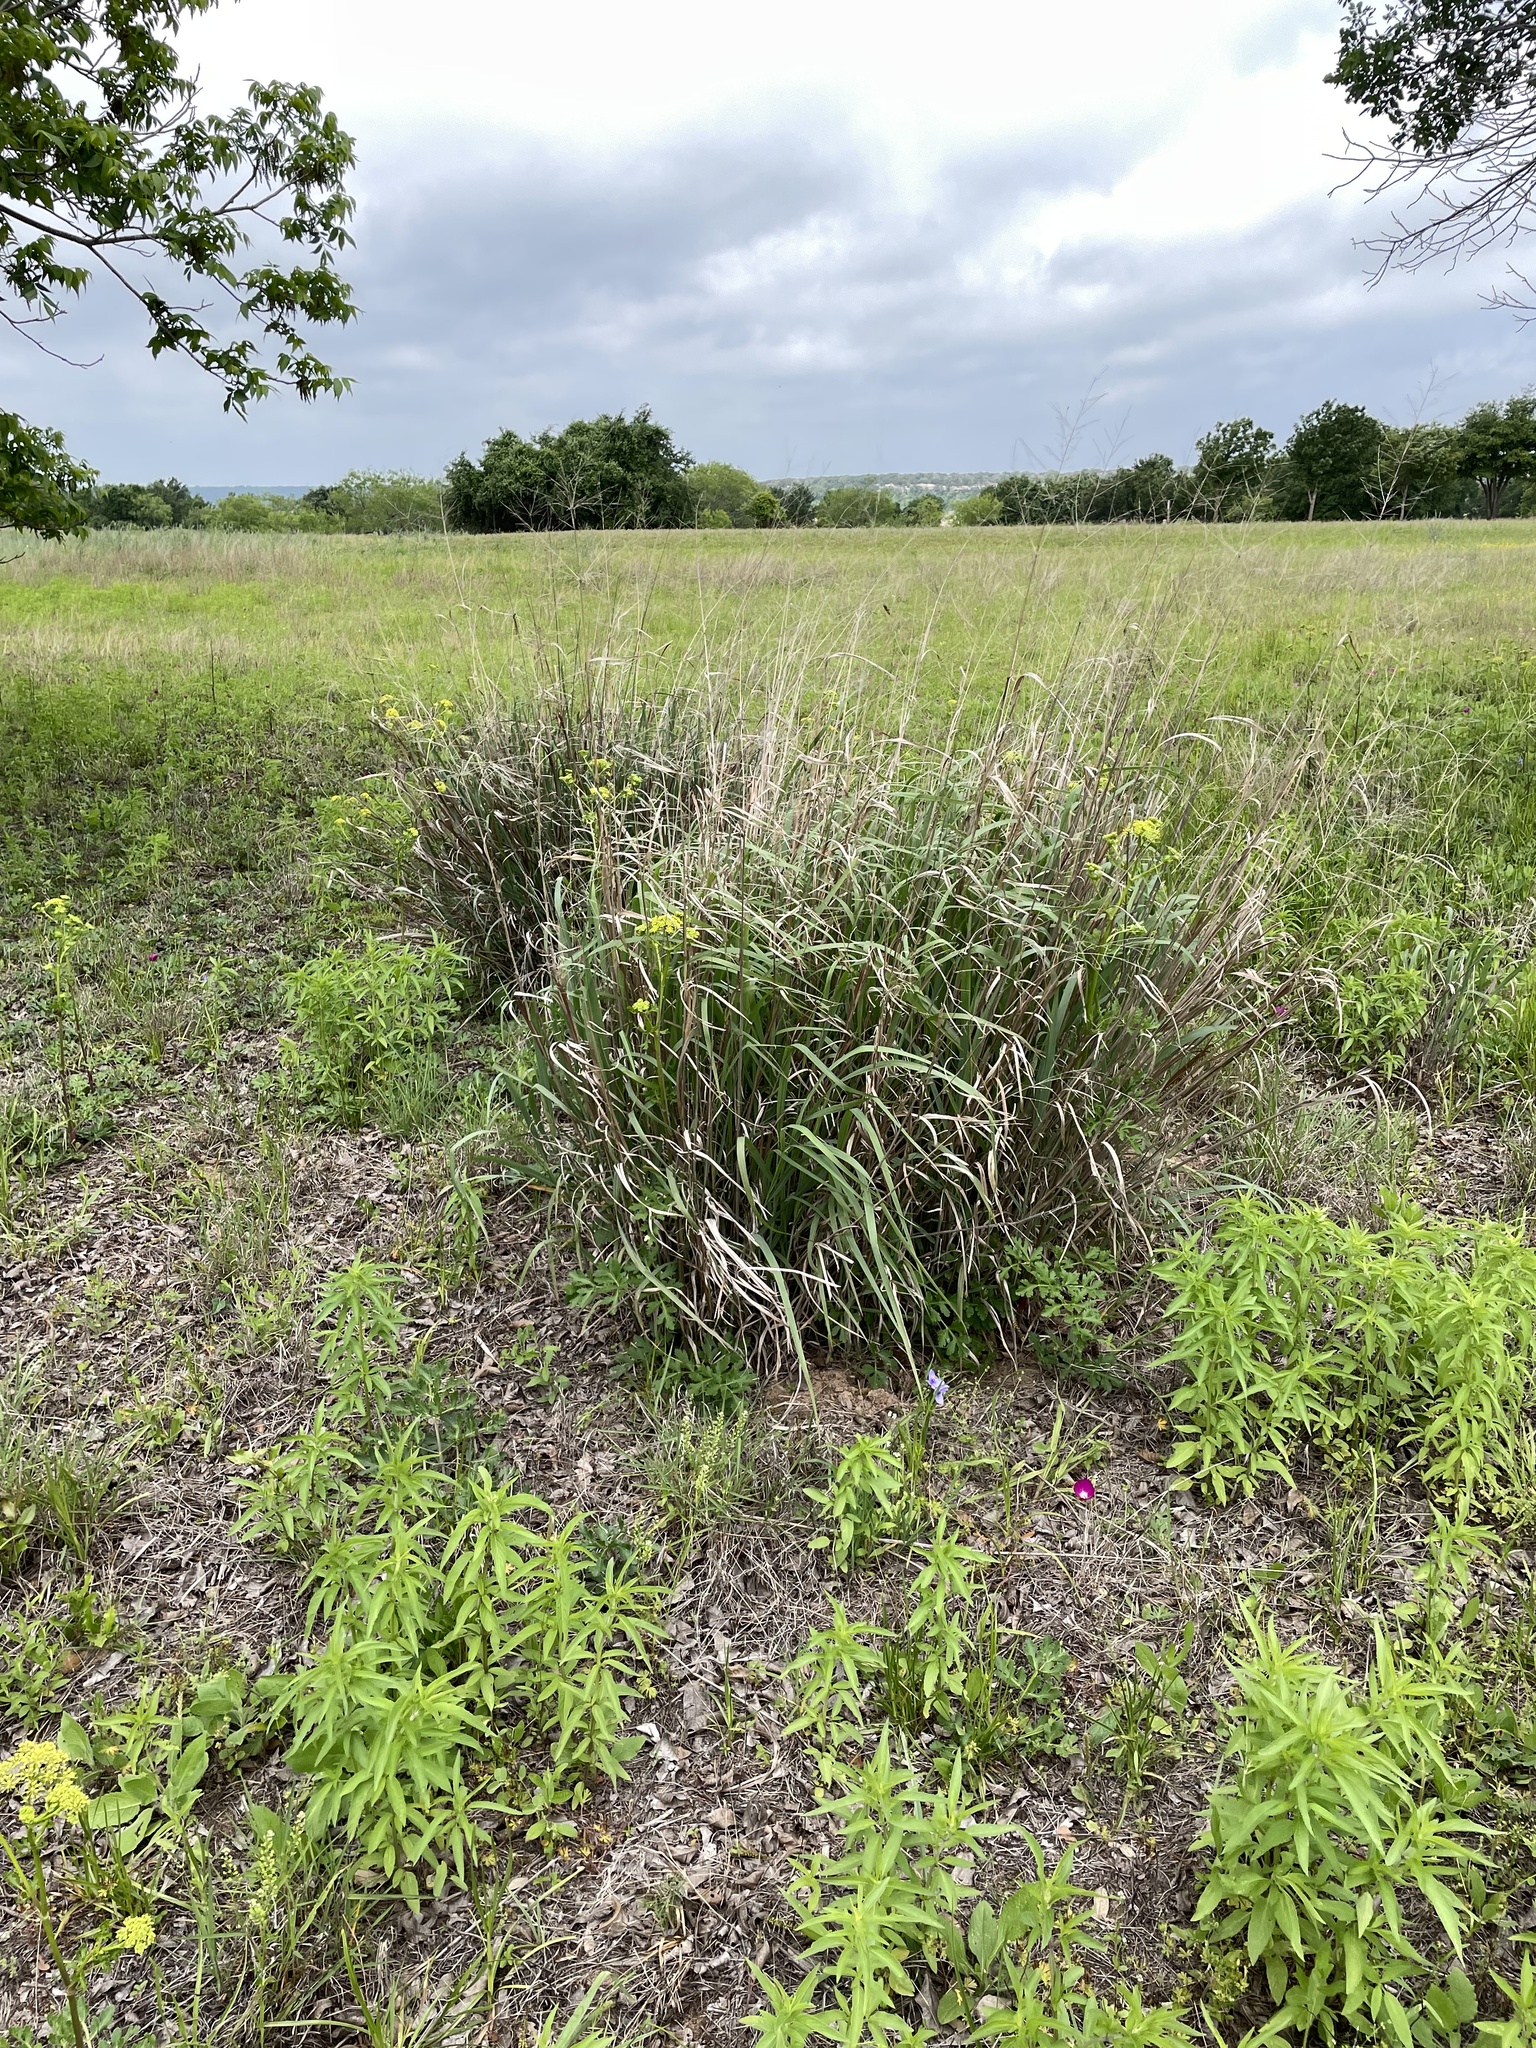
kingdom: Plantae
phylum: Tracheophyta
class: Liliopsida
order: Poales
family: Poaceae
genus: Panicum
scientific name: Panicum virgatum
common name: Switchgrass
